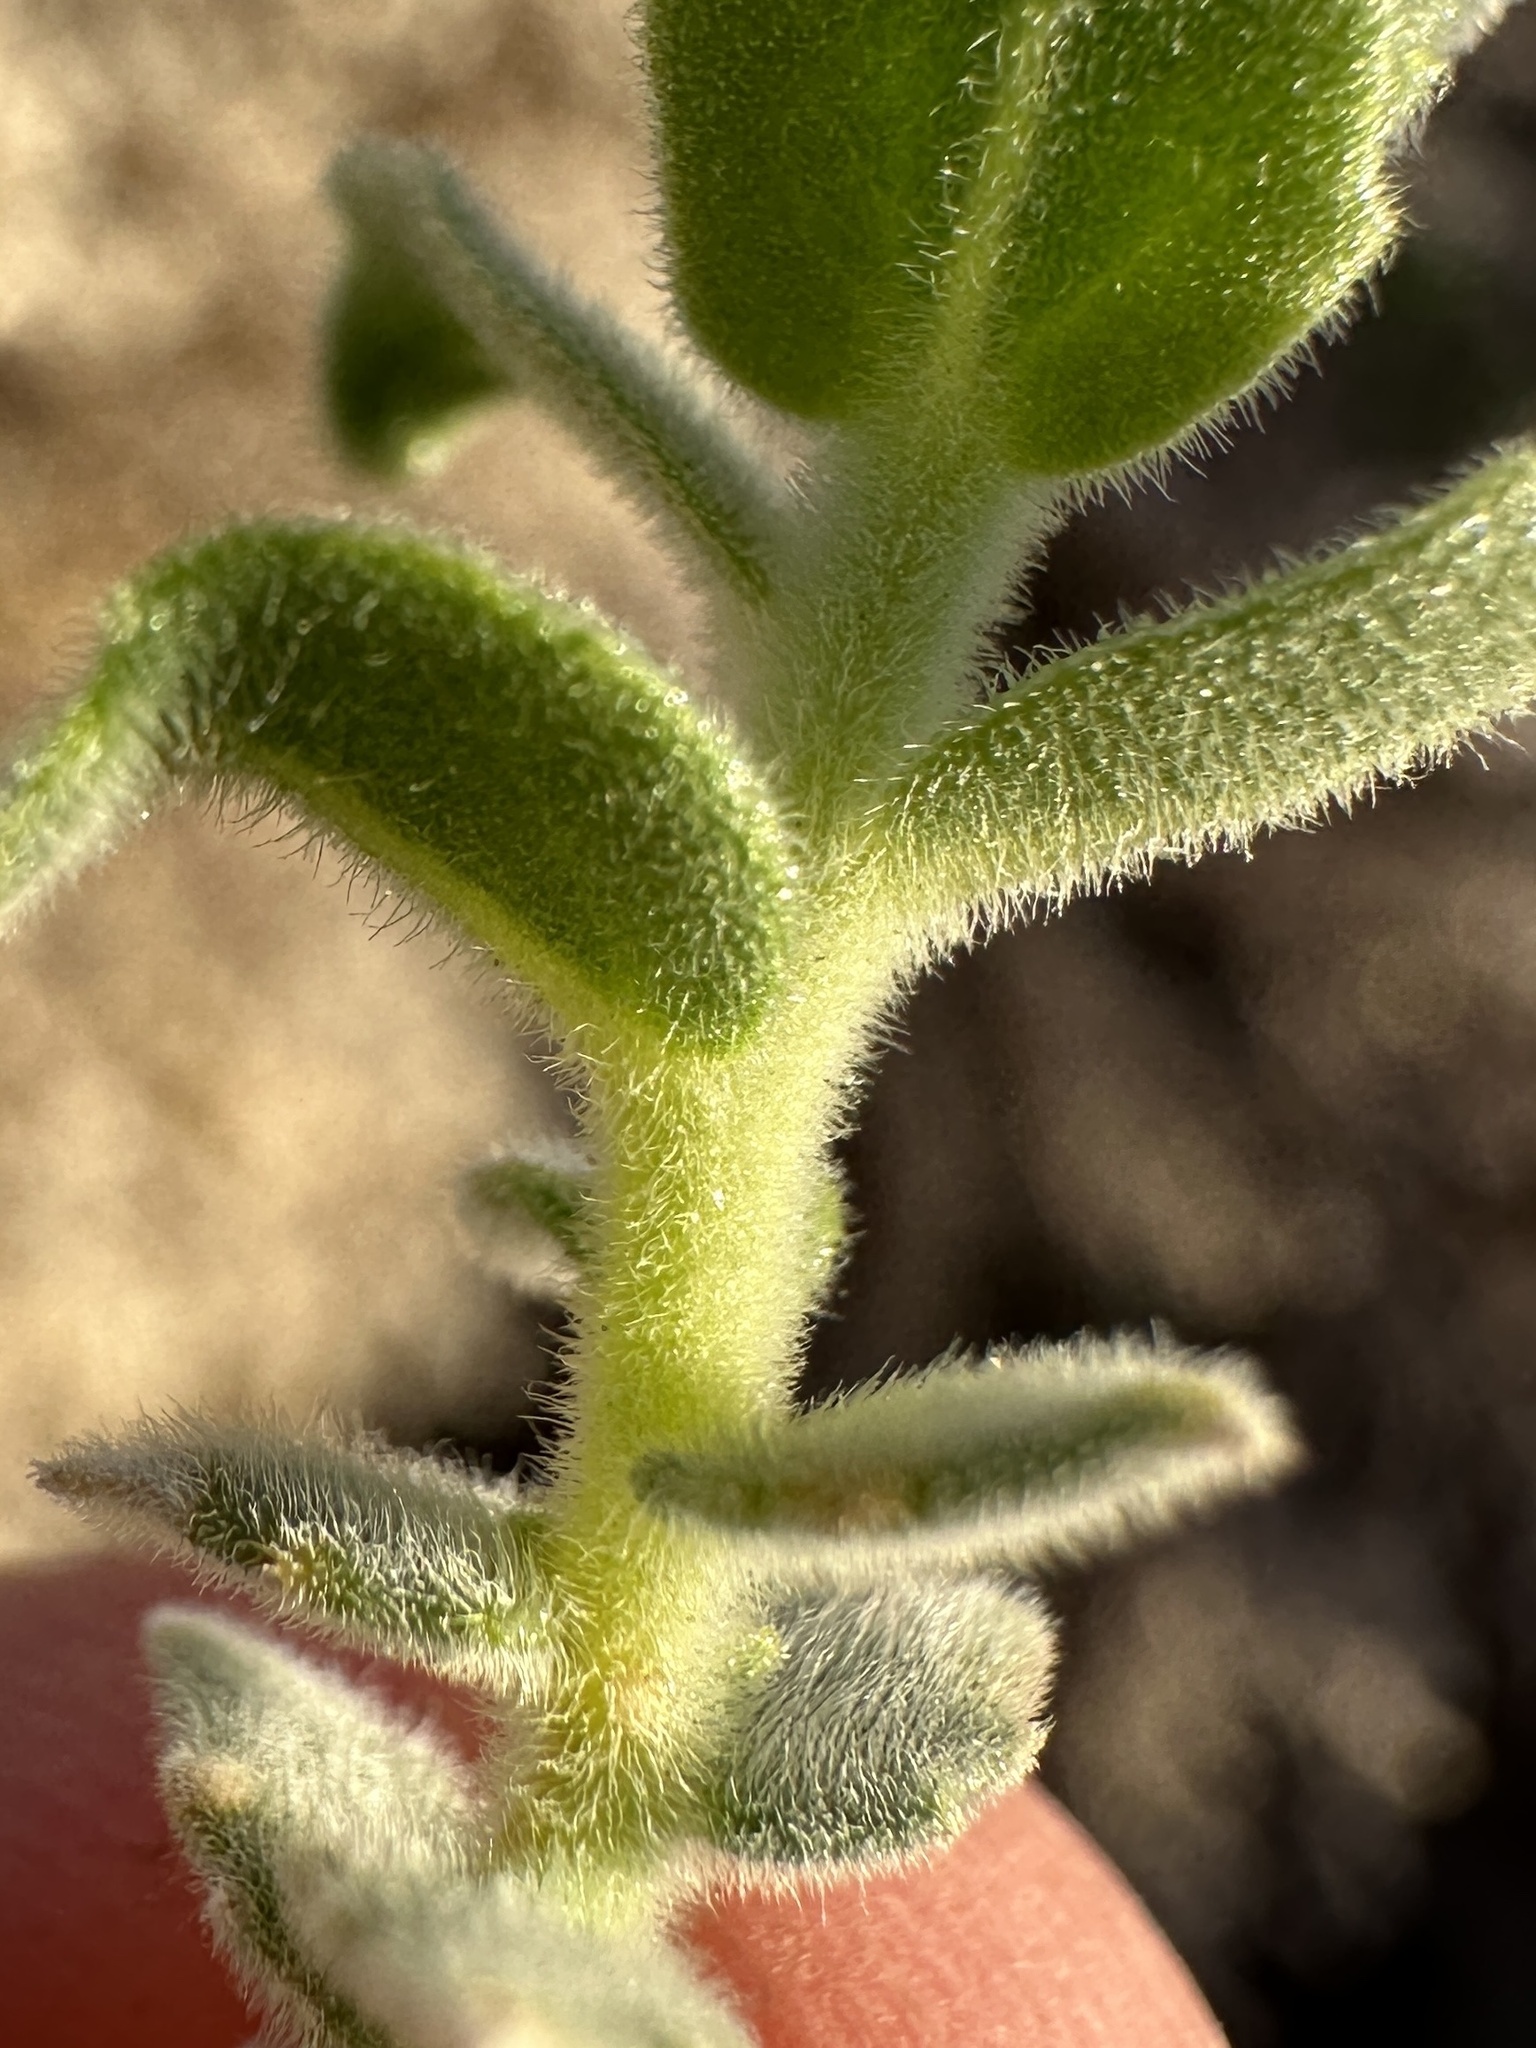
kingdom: Plantae
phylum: Tracheophyta
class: Magnoliopsida
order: Cornales
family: Loasaceae
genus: Petalonyx
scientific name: Petalonyx thurberi
